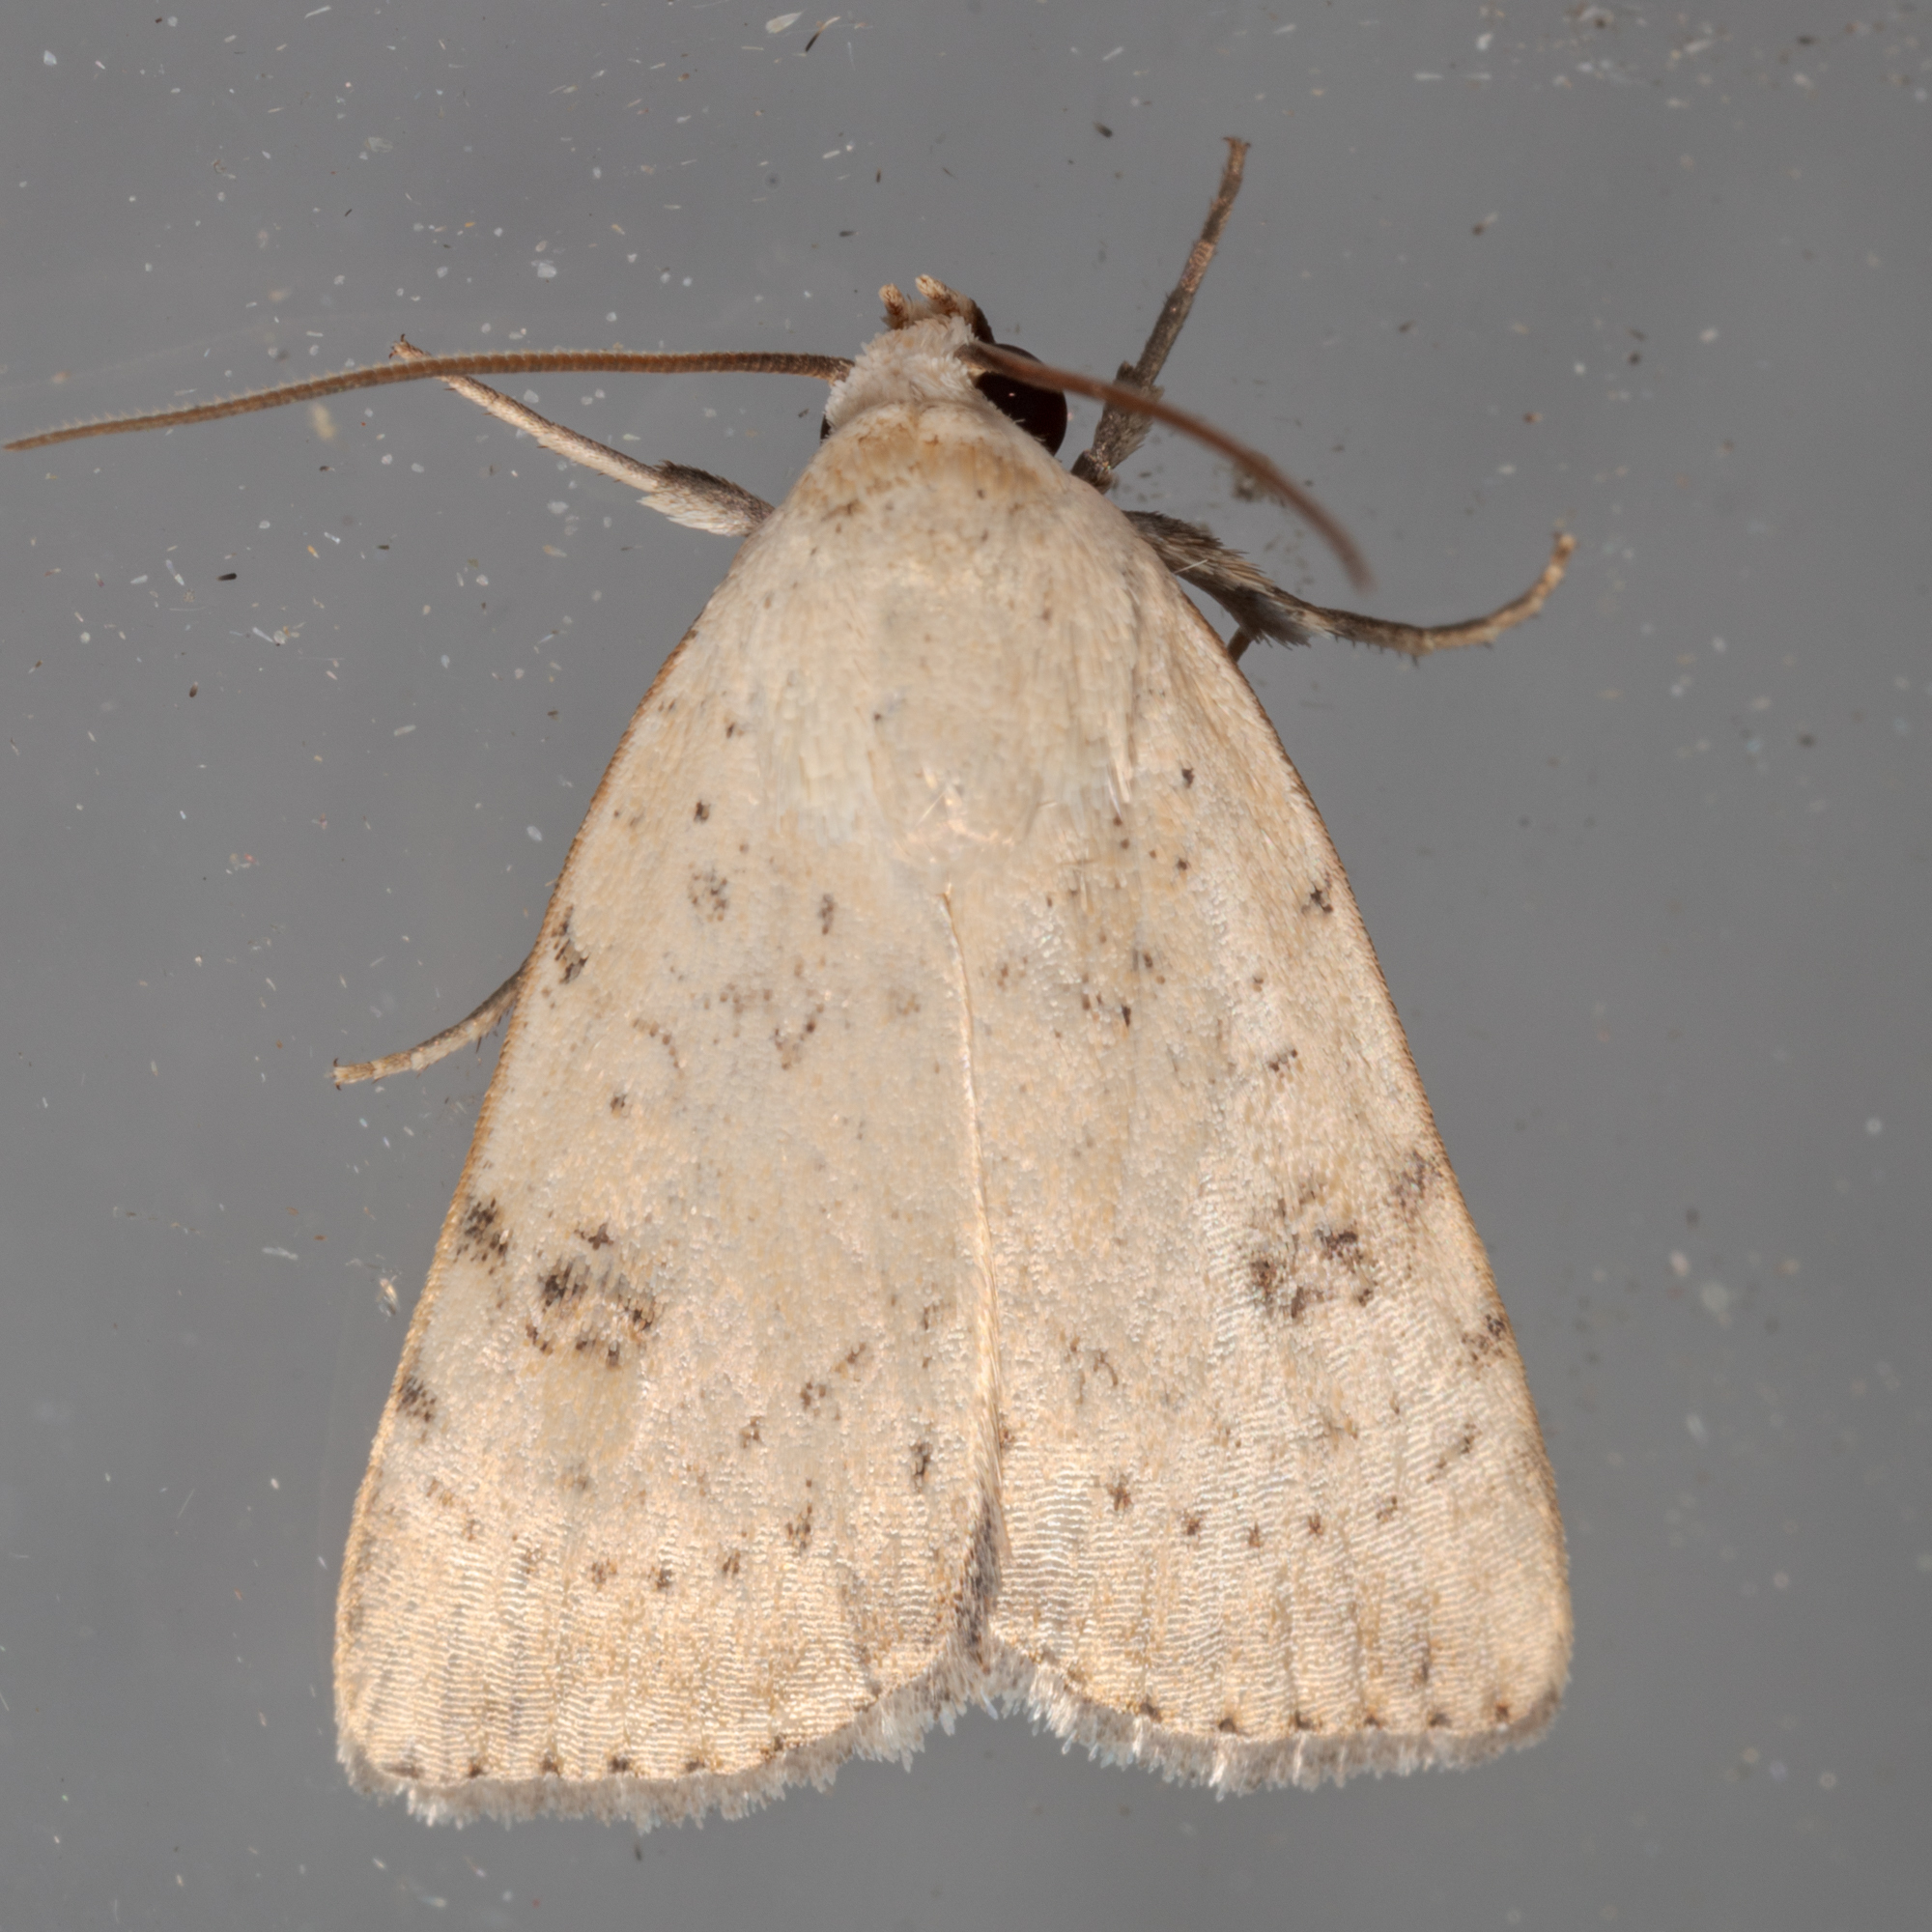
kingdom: Animalia
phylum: Arthropoda
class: Insecta
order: Lepidoptera
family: Noctuidae
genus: Micrathetis
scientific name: Micrathetis triplex
